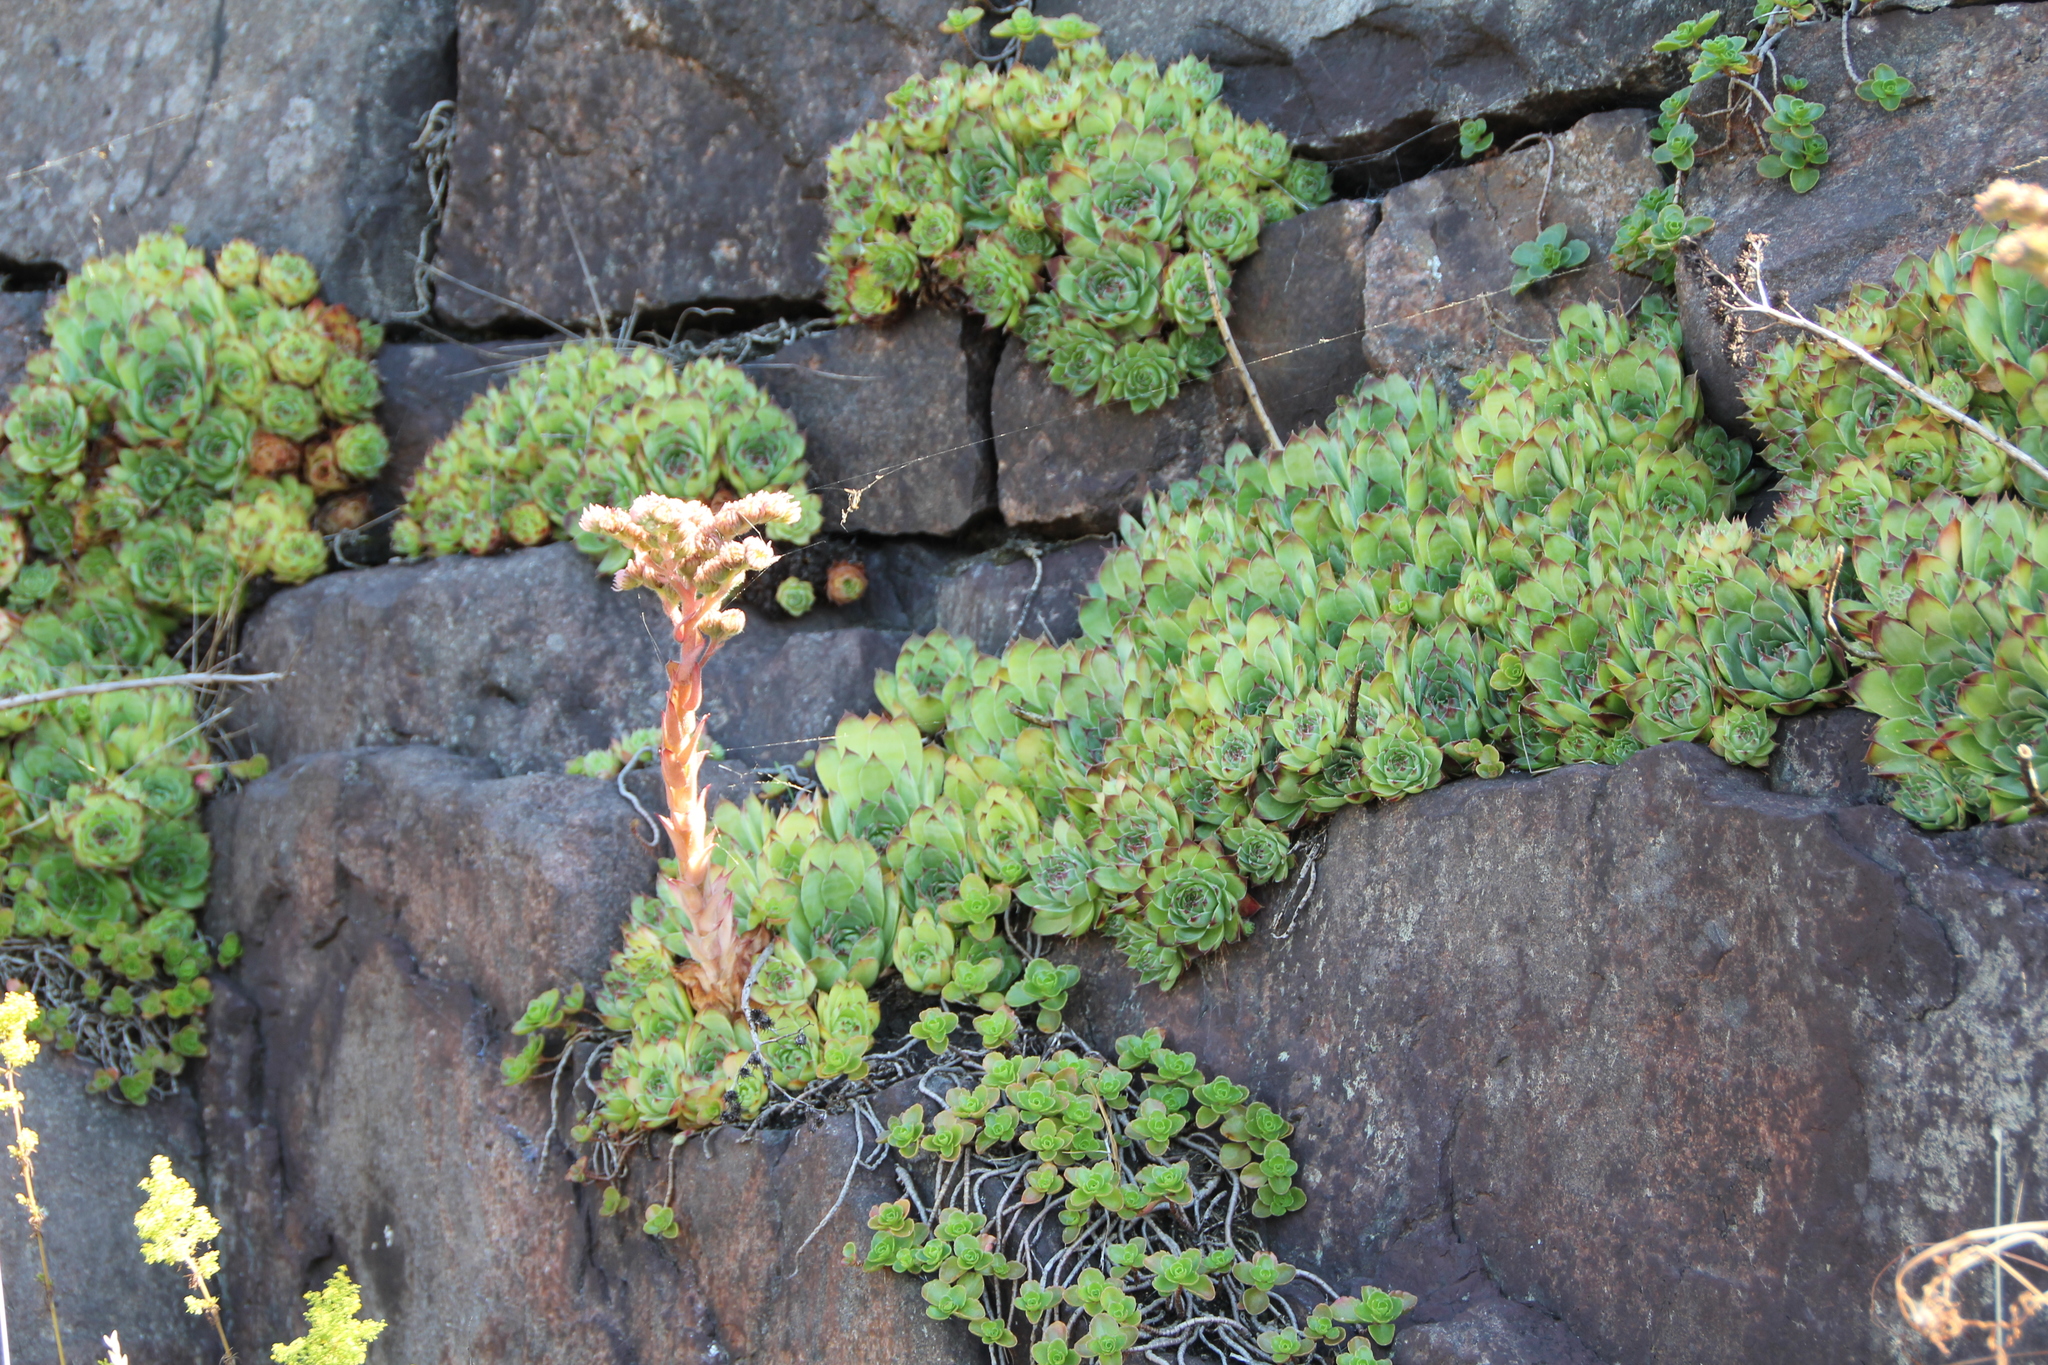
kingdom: Plantae
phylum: Tracheophyta
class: Magnoliopsida
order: Saxifragales
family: Crassulaceae
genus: Sempervivum
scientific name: Sempervivum tectorum
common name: House-leek
